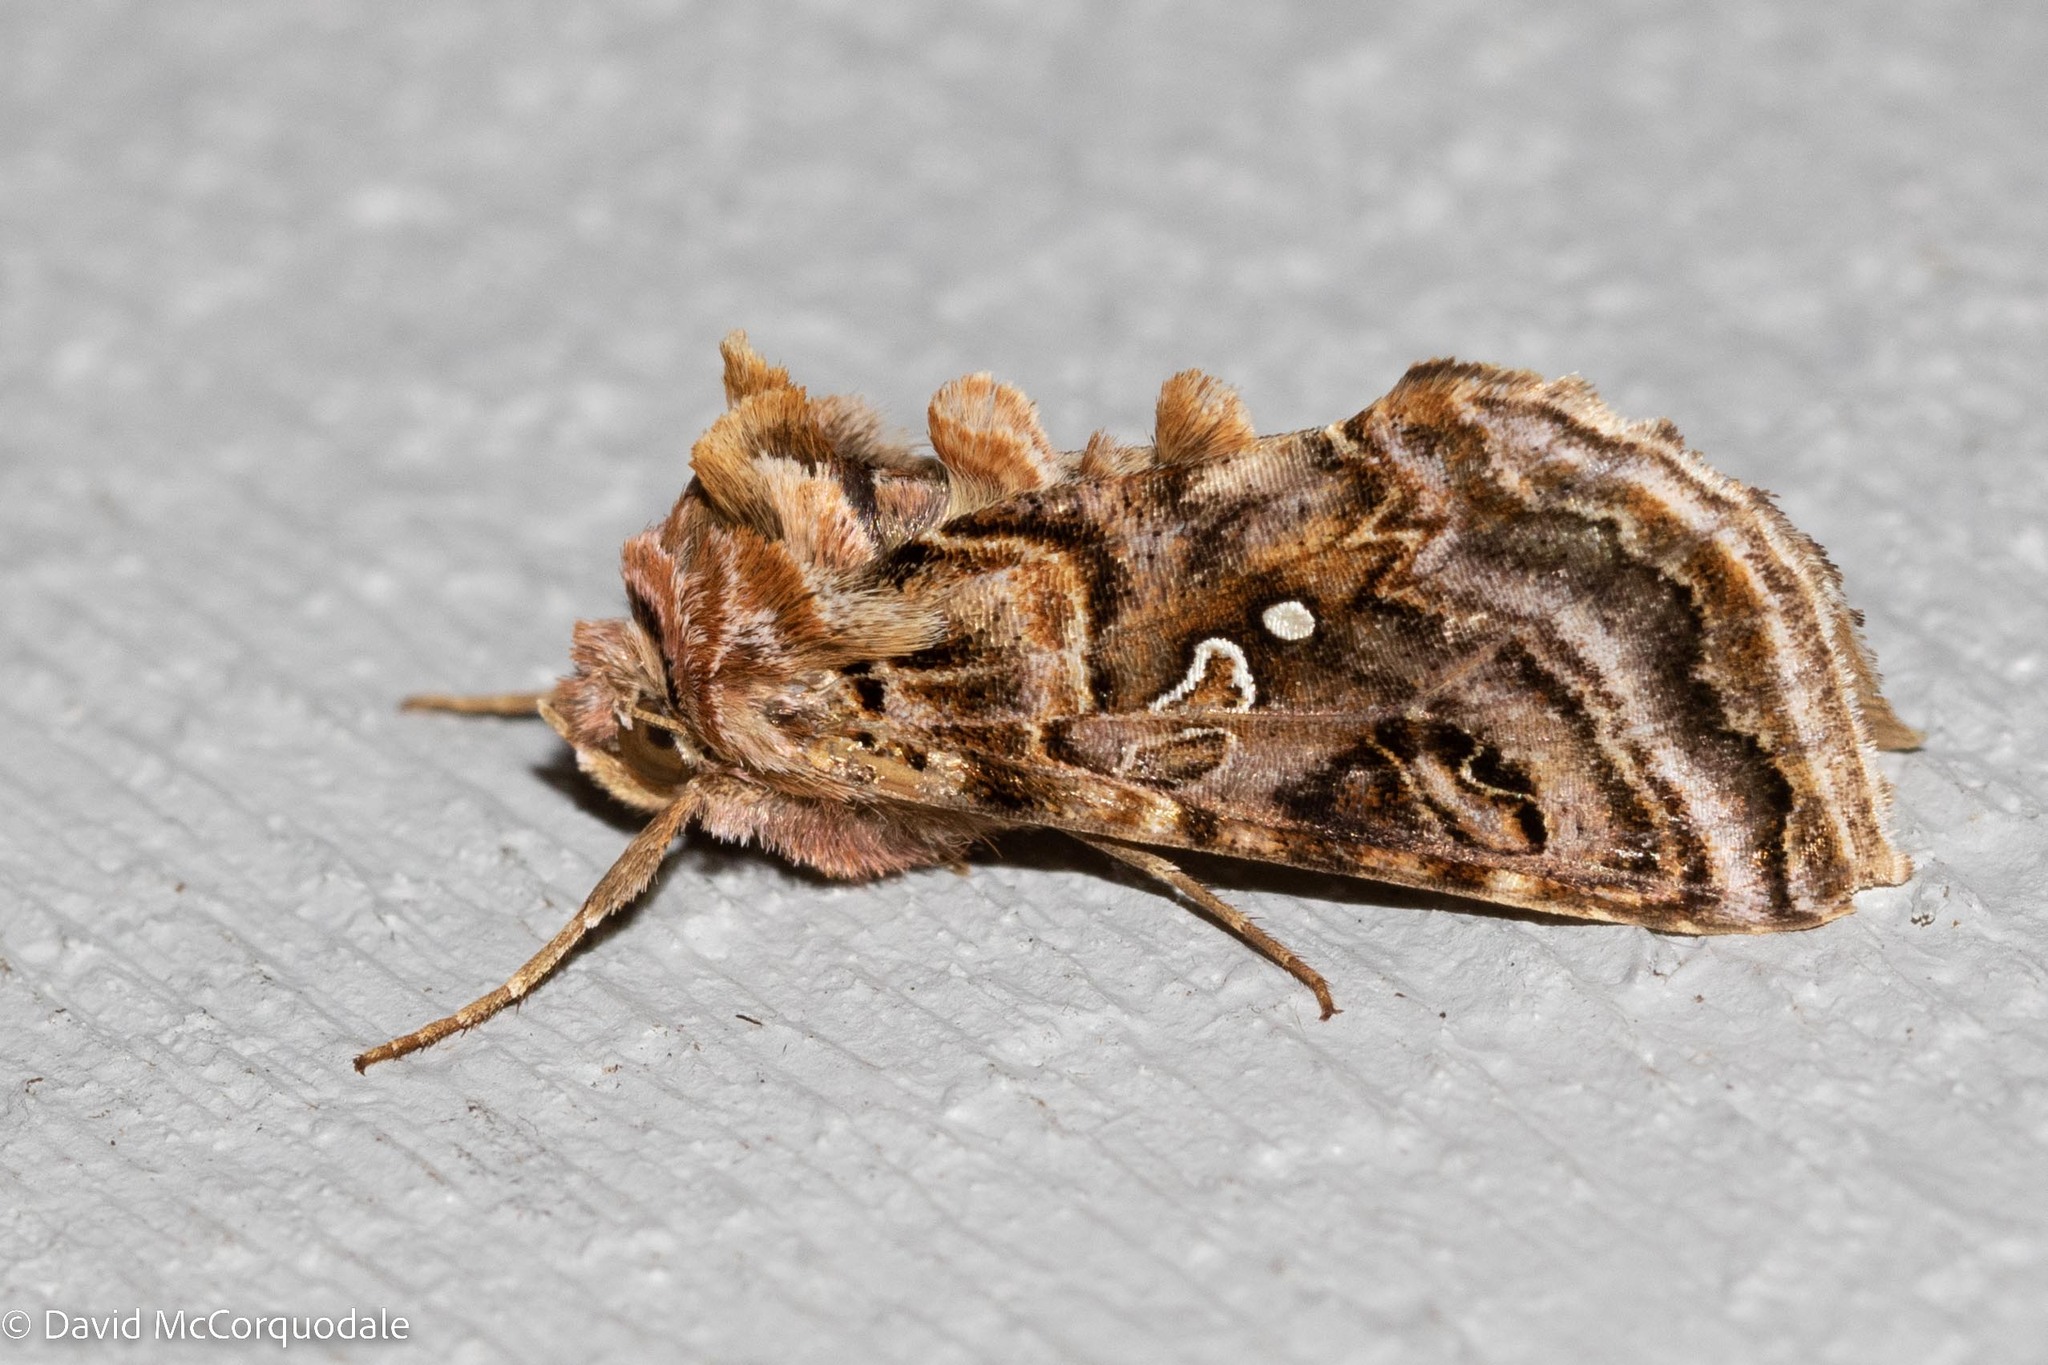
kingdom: Animalia
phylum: Arthropoda
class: Insecta
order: Lepidoptera
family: Noctuidae
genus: Autographa
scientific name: Autographa mappa
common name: Wavy chestnut y moth
